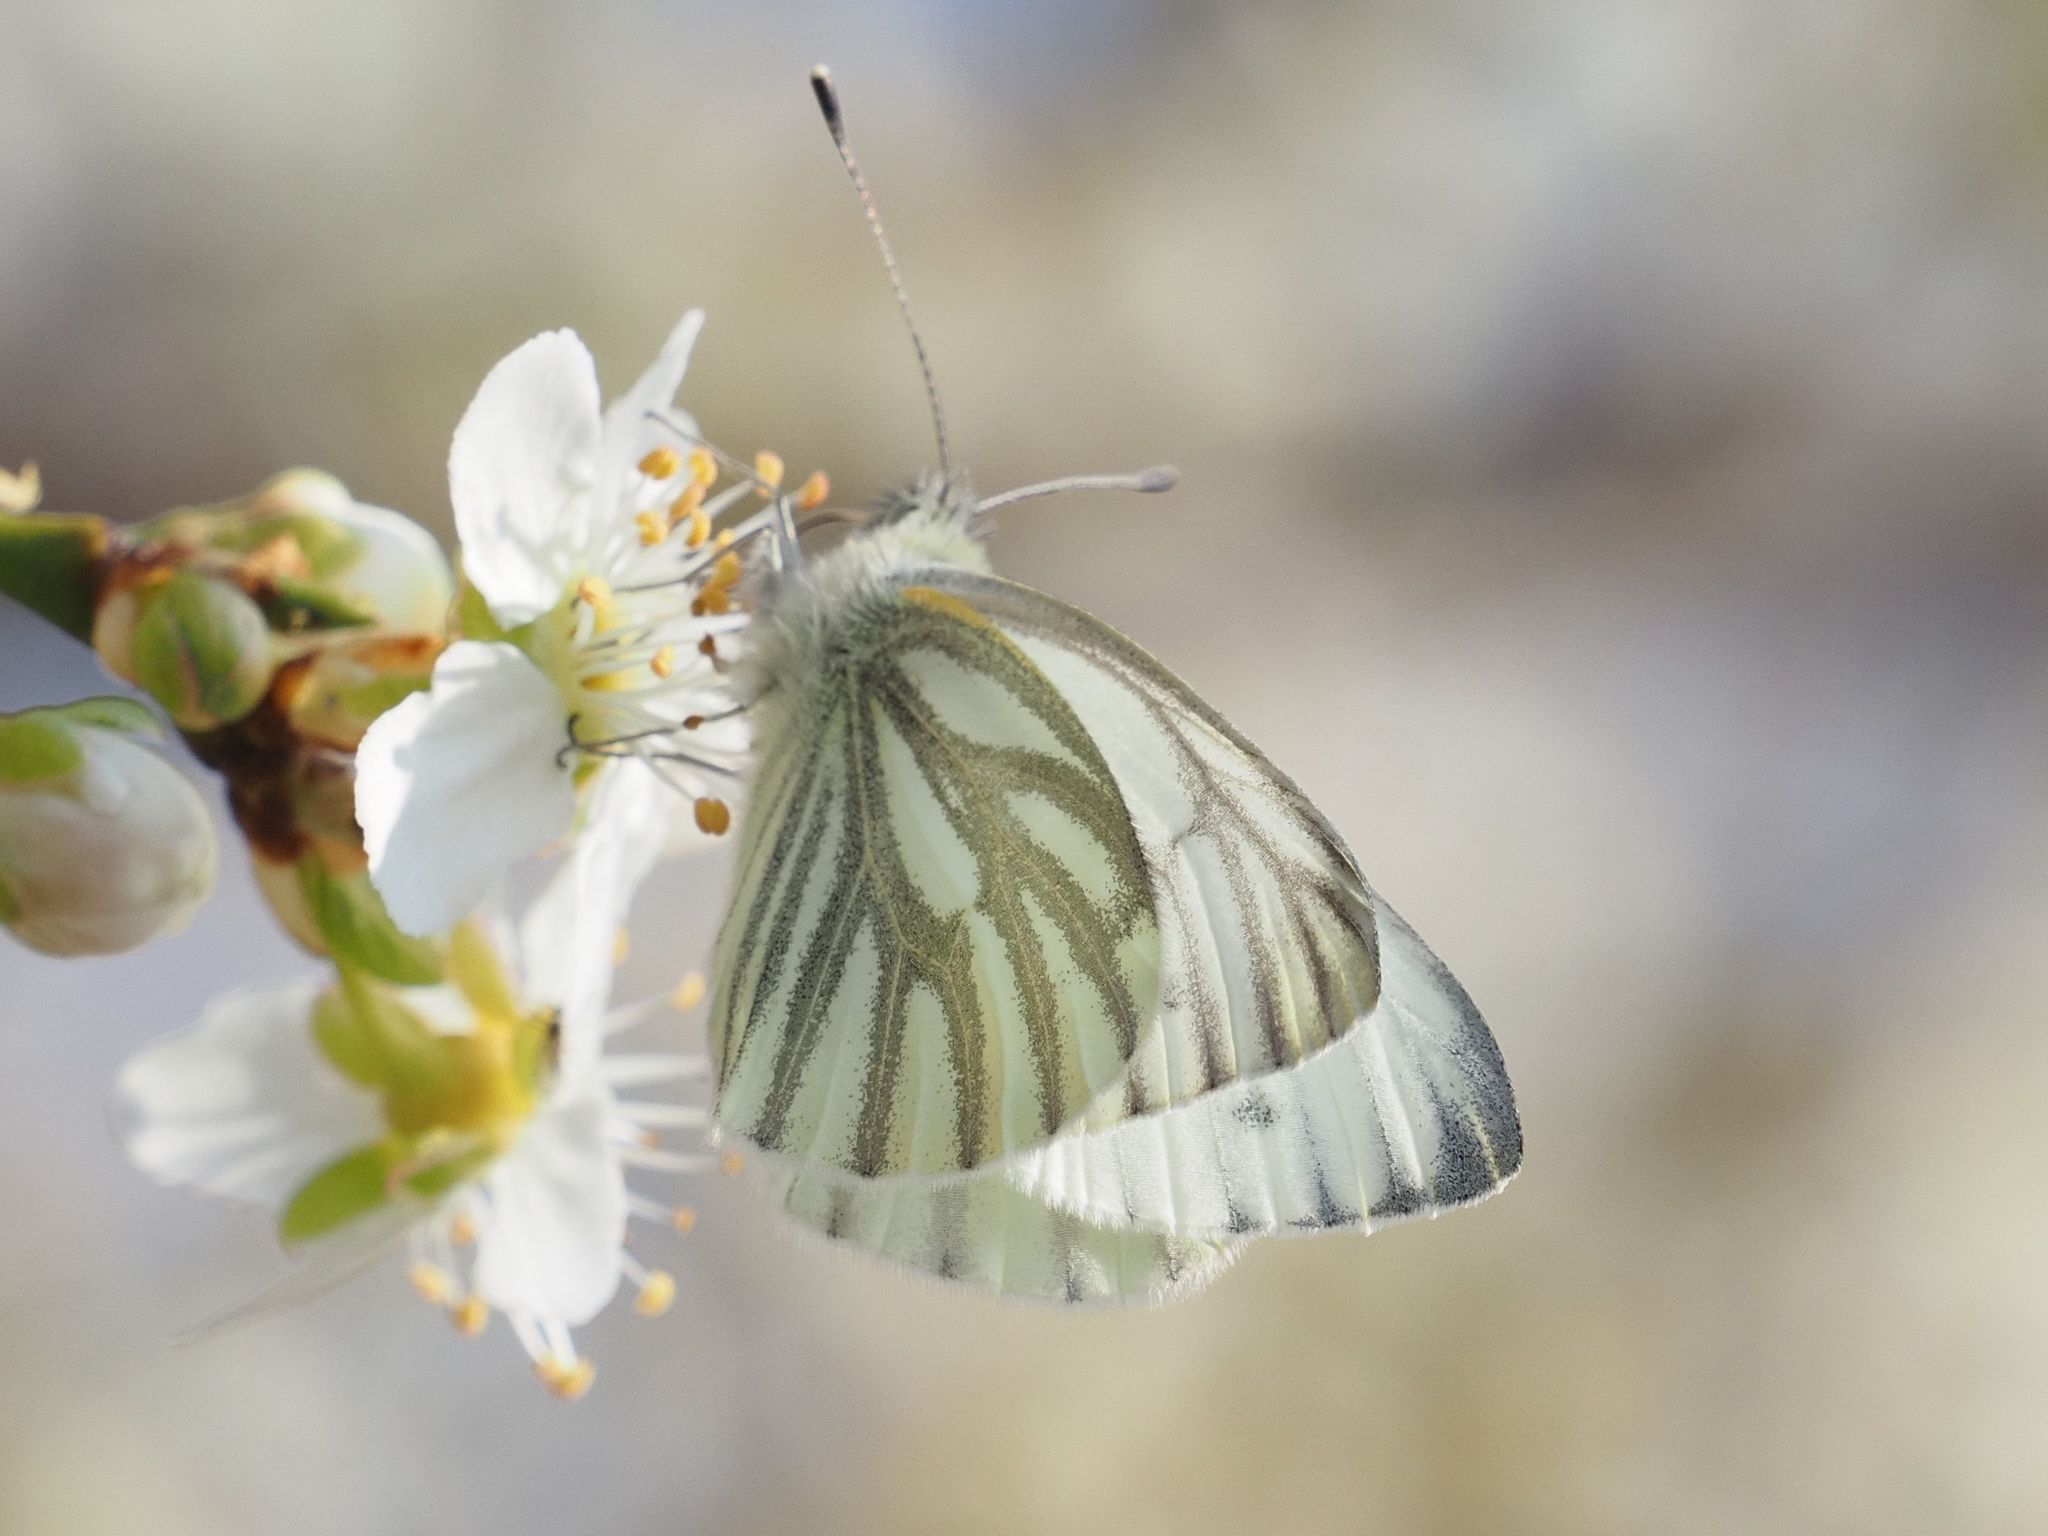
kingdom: Animalia
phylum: Arthropoda
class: Insecta
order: Lepidoptera
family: Pieridae
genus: Pieris
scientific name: Pieris napi
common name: Green-veined white
